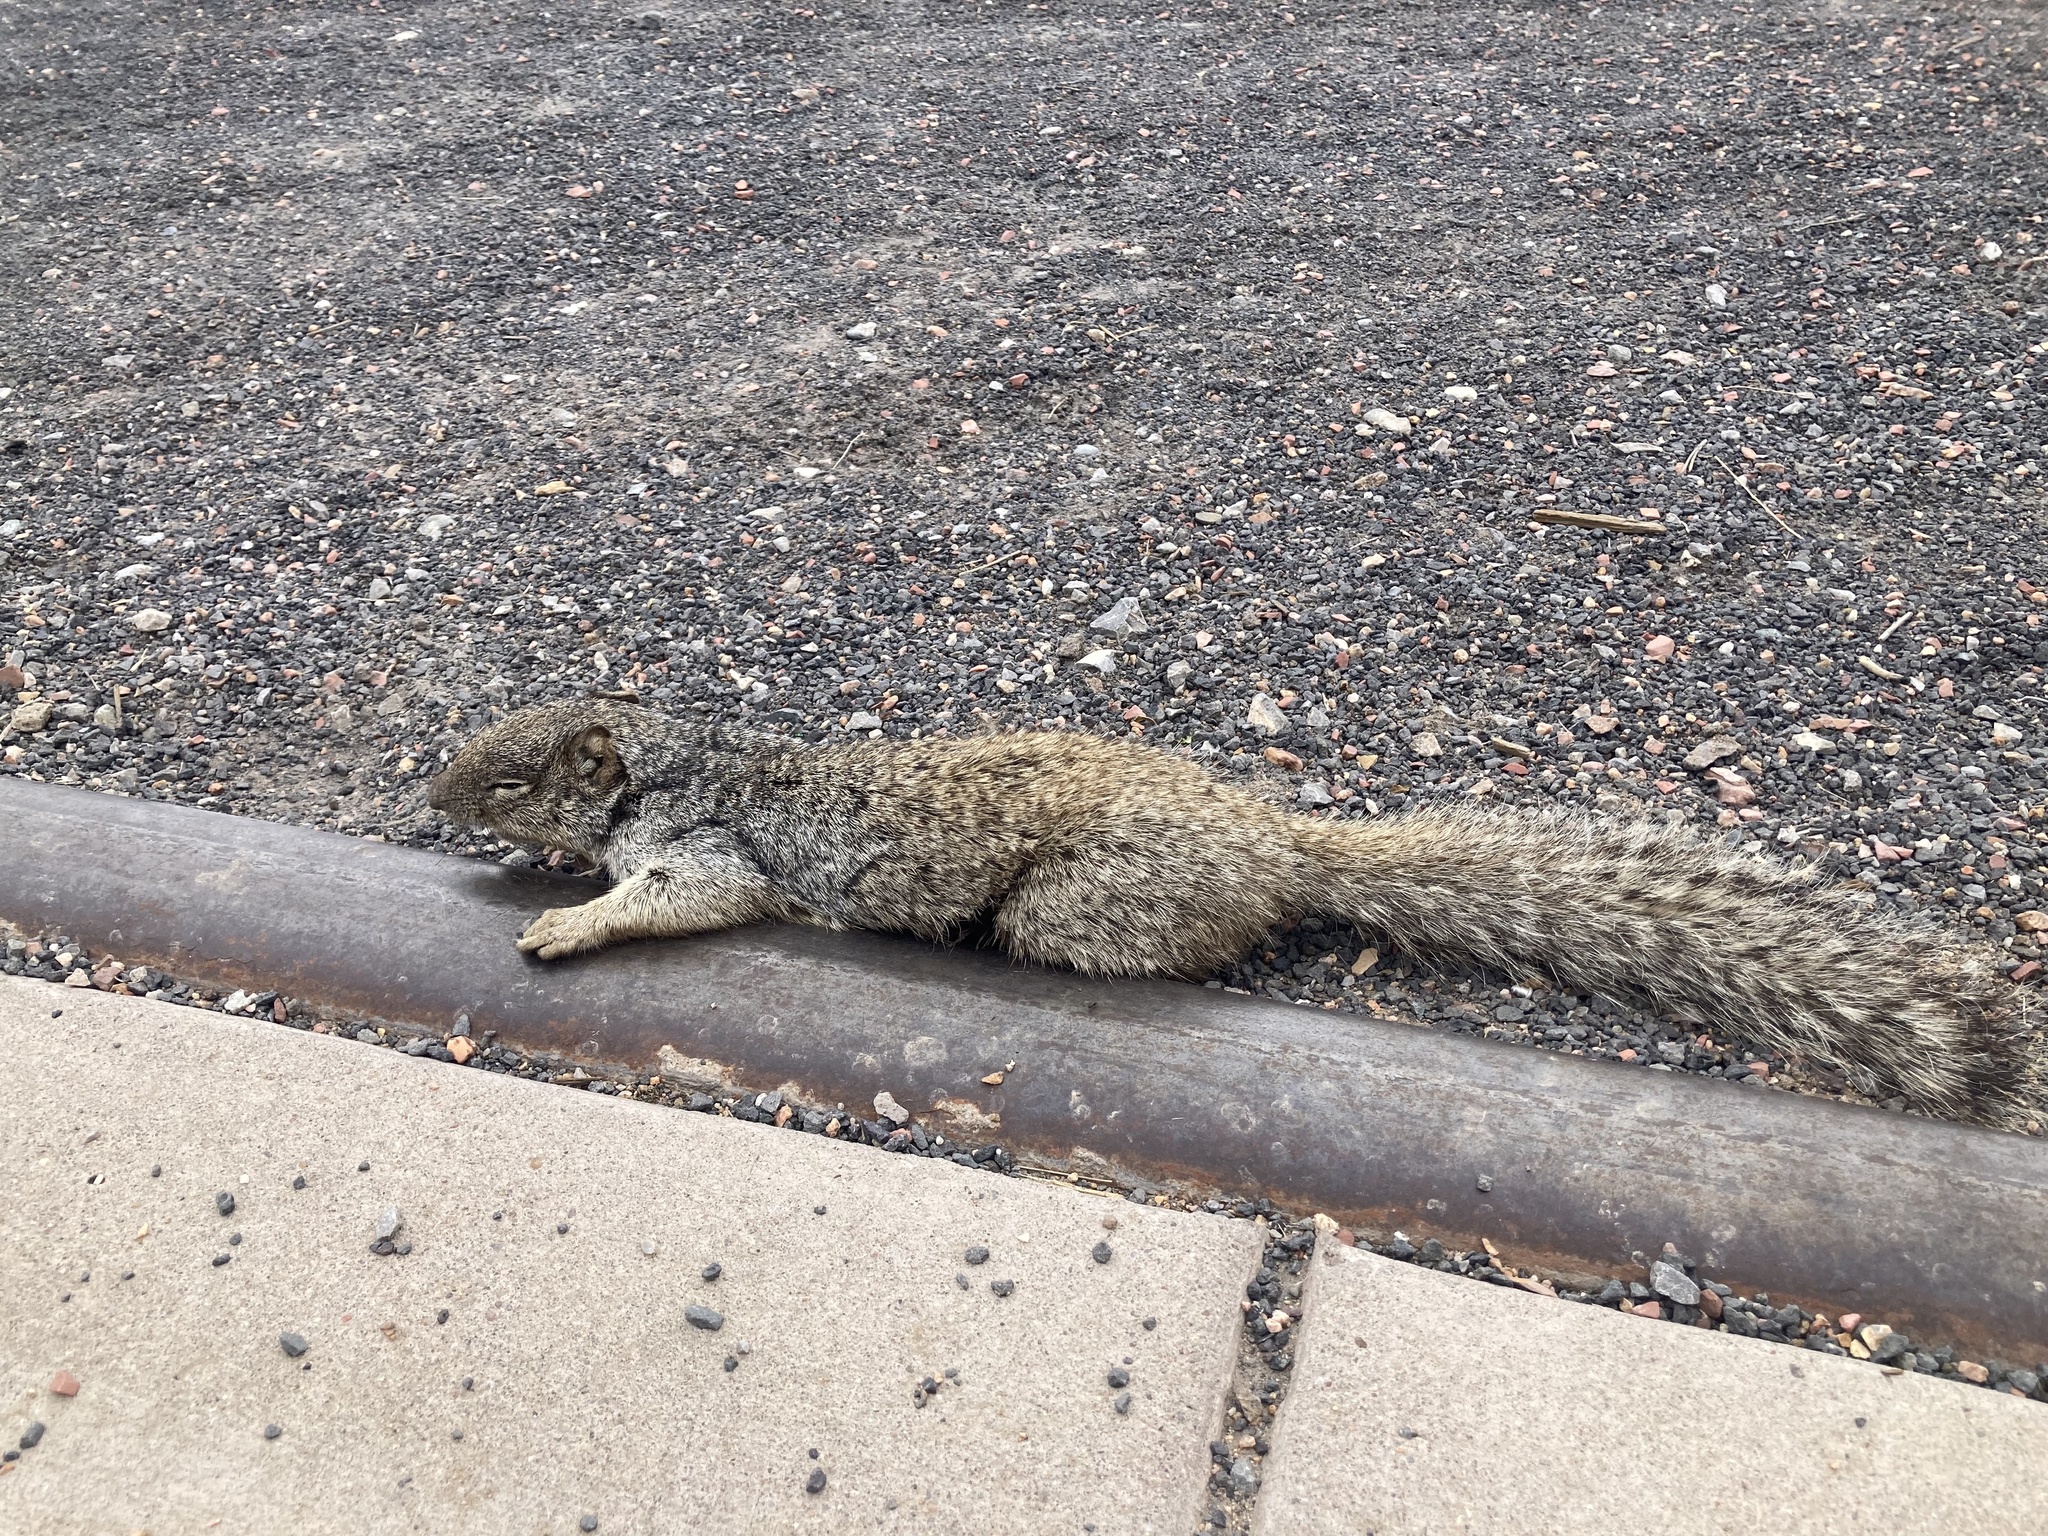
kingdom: Animalia
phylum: Chordata
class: Mammalia
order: Rodentia
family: Sciuridae
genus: Otospermophilus
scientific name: Otospermophilus variegatus
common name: Rock squirrel
